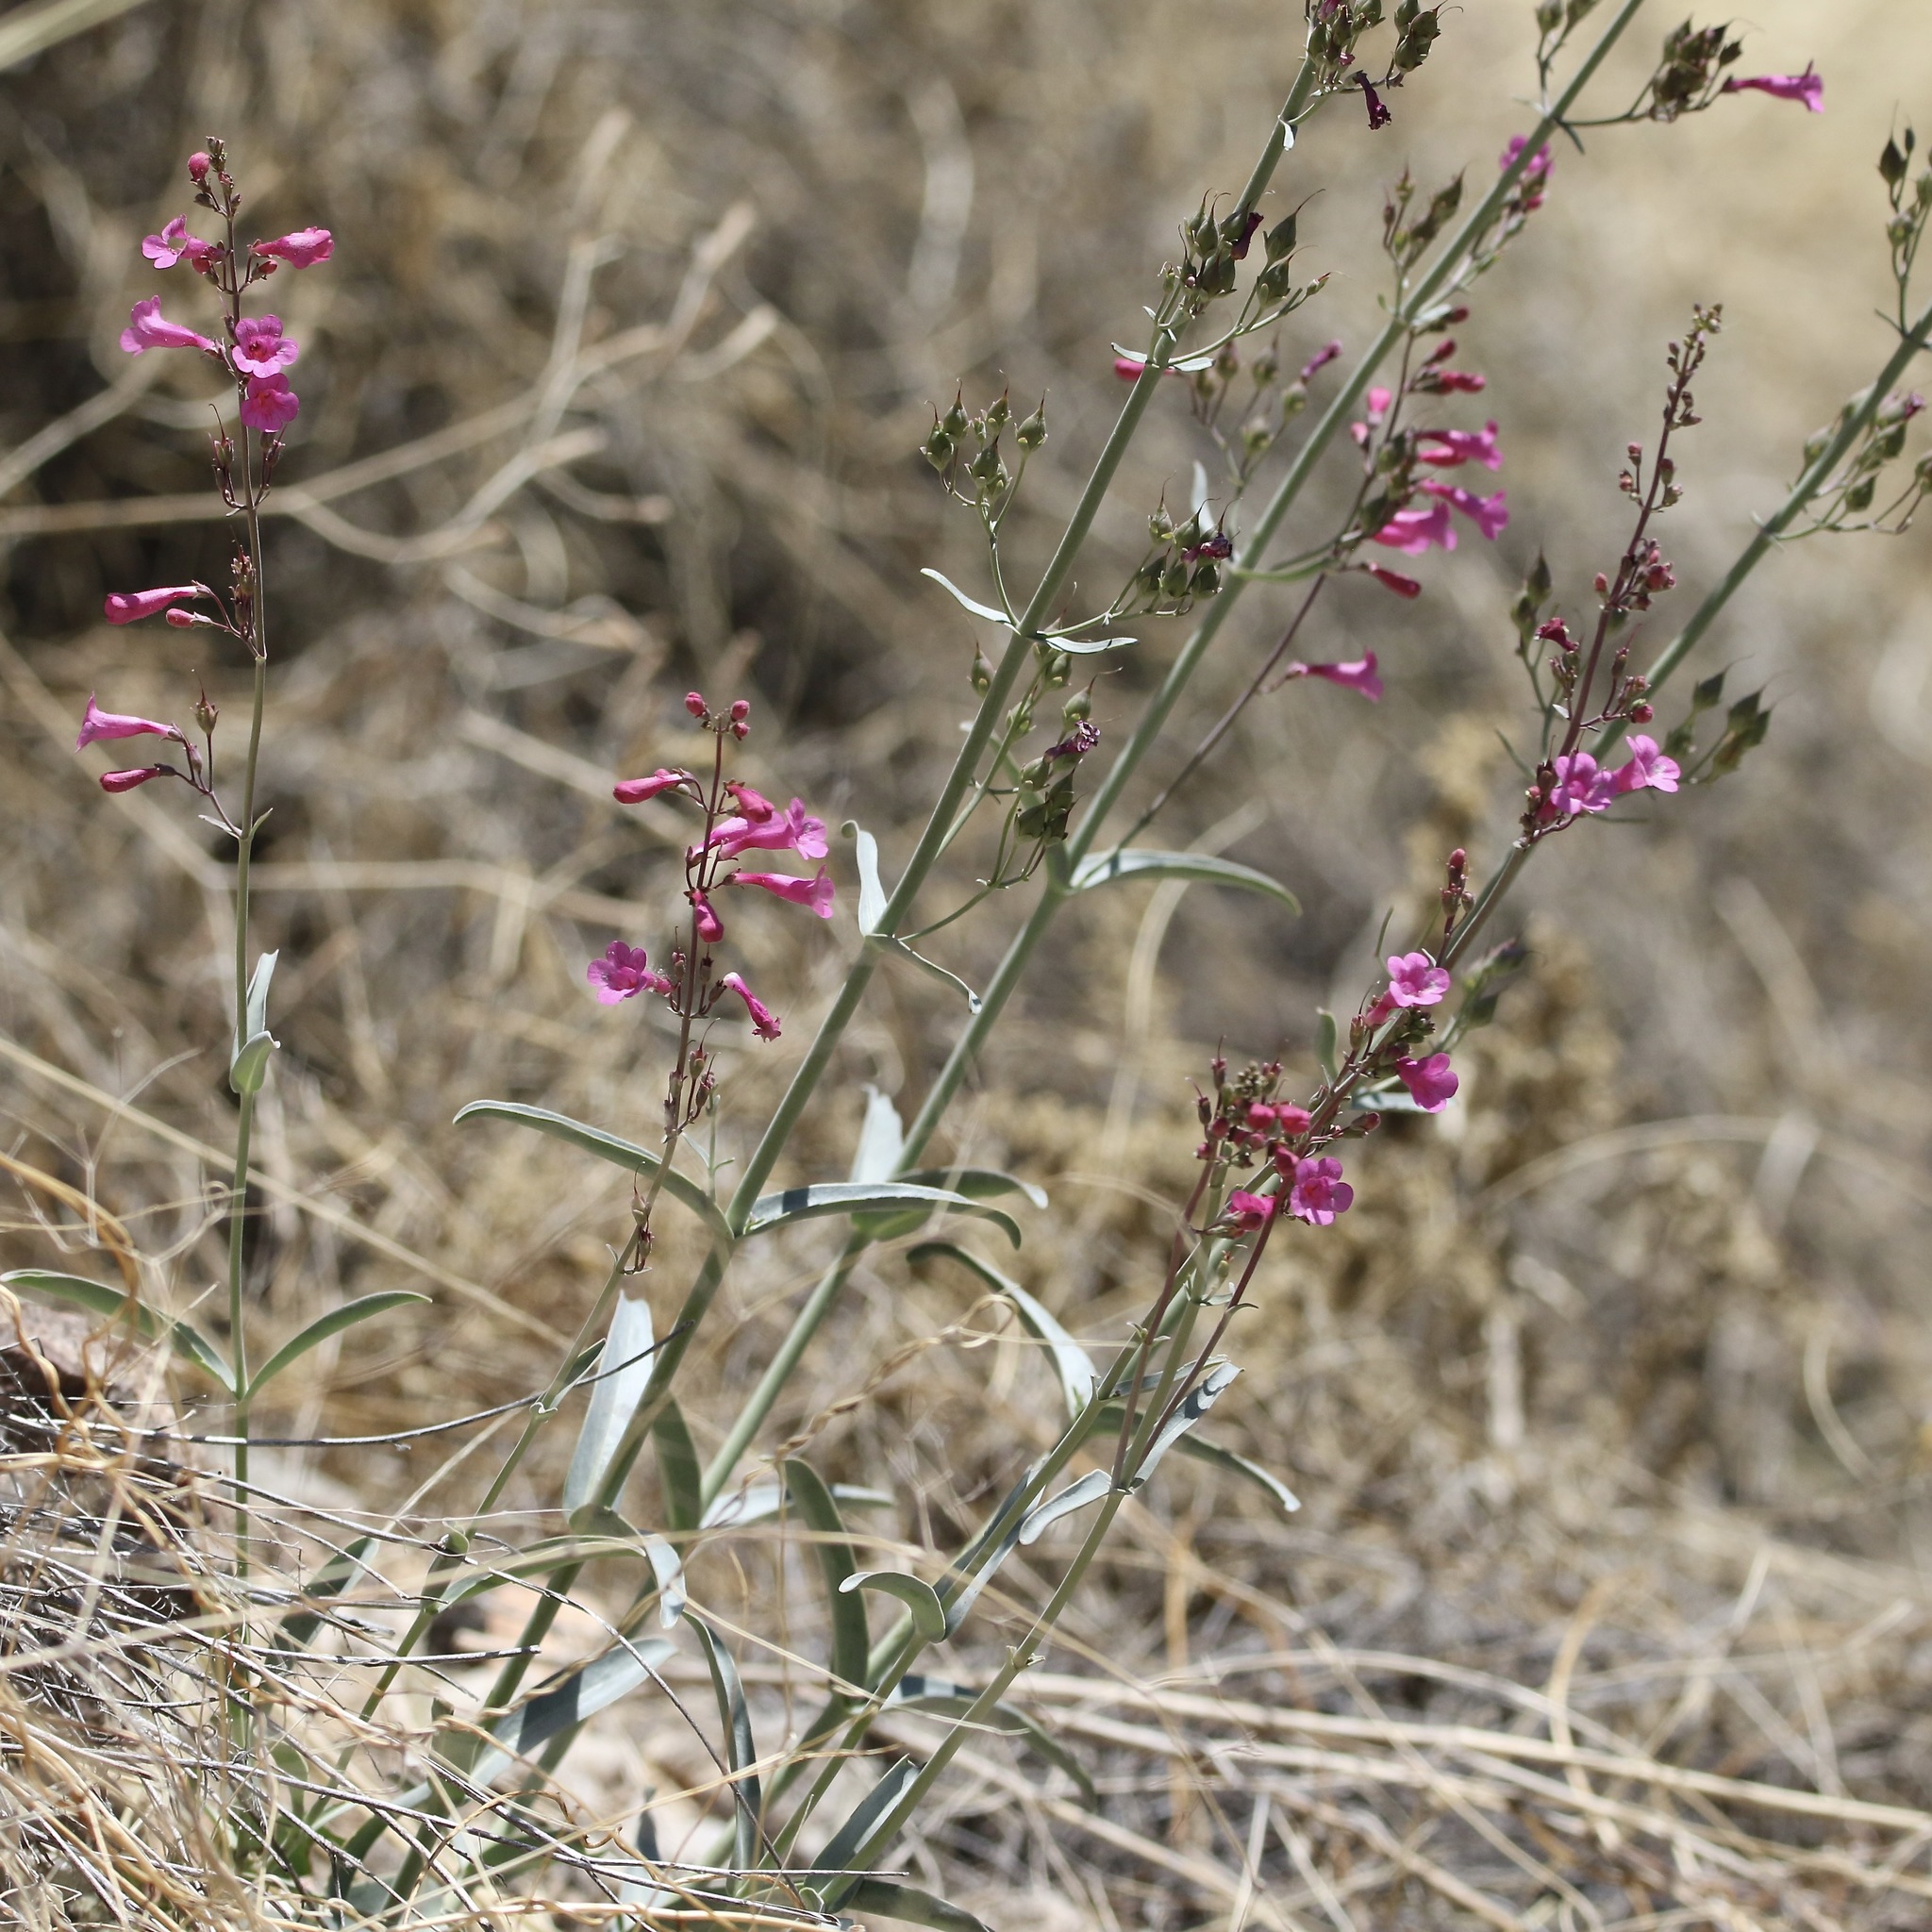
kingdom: Plantae
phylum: Tracheophyta
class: Magnoliopsida
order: Lamiales
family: Plantaginaceae
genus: Penstemon
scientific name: Penstemon parryi
